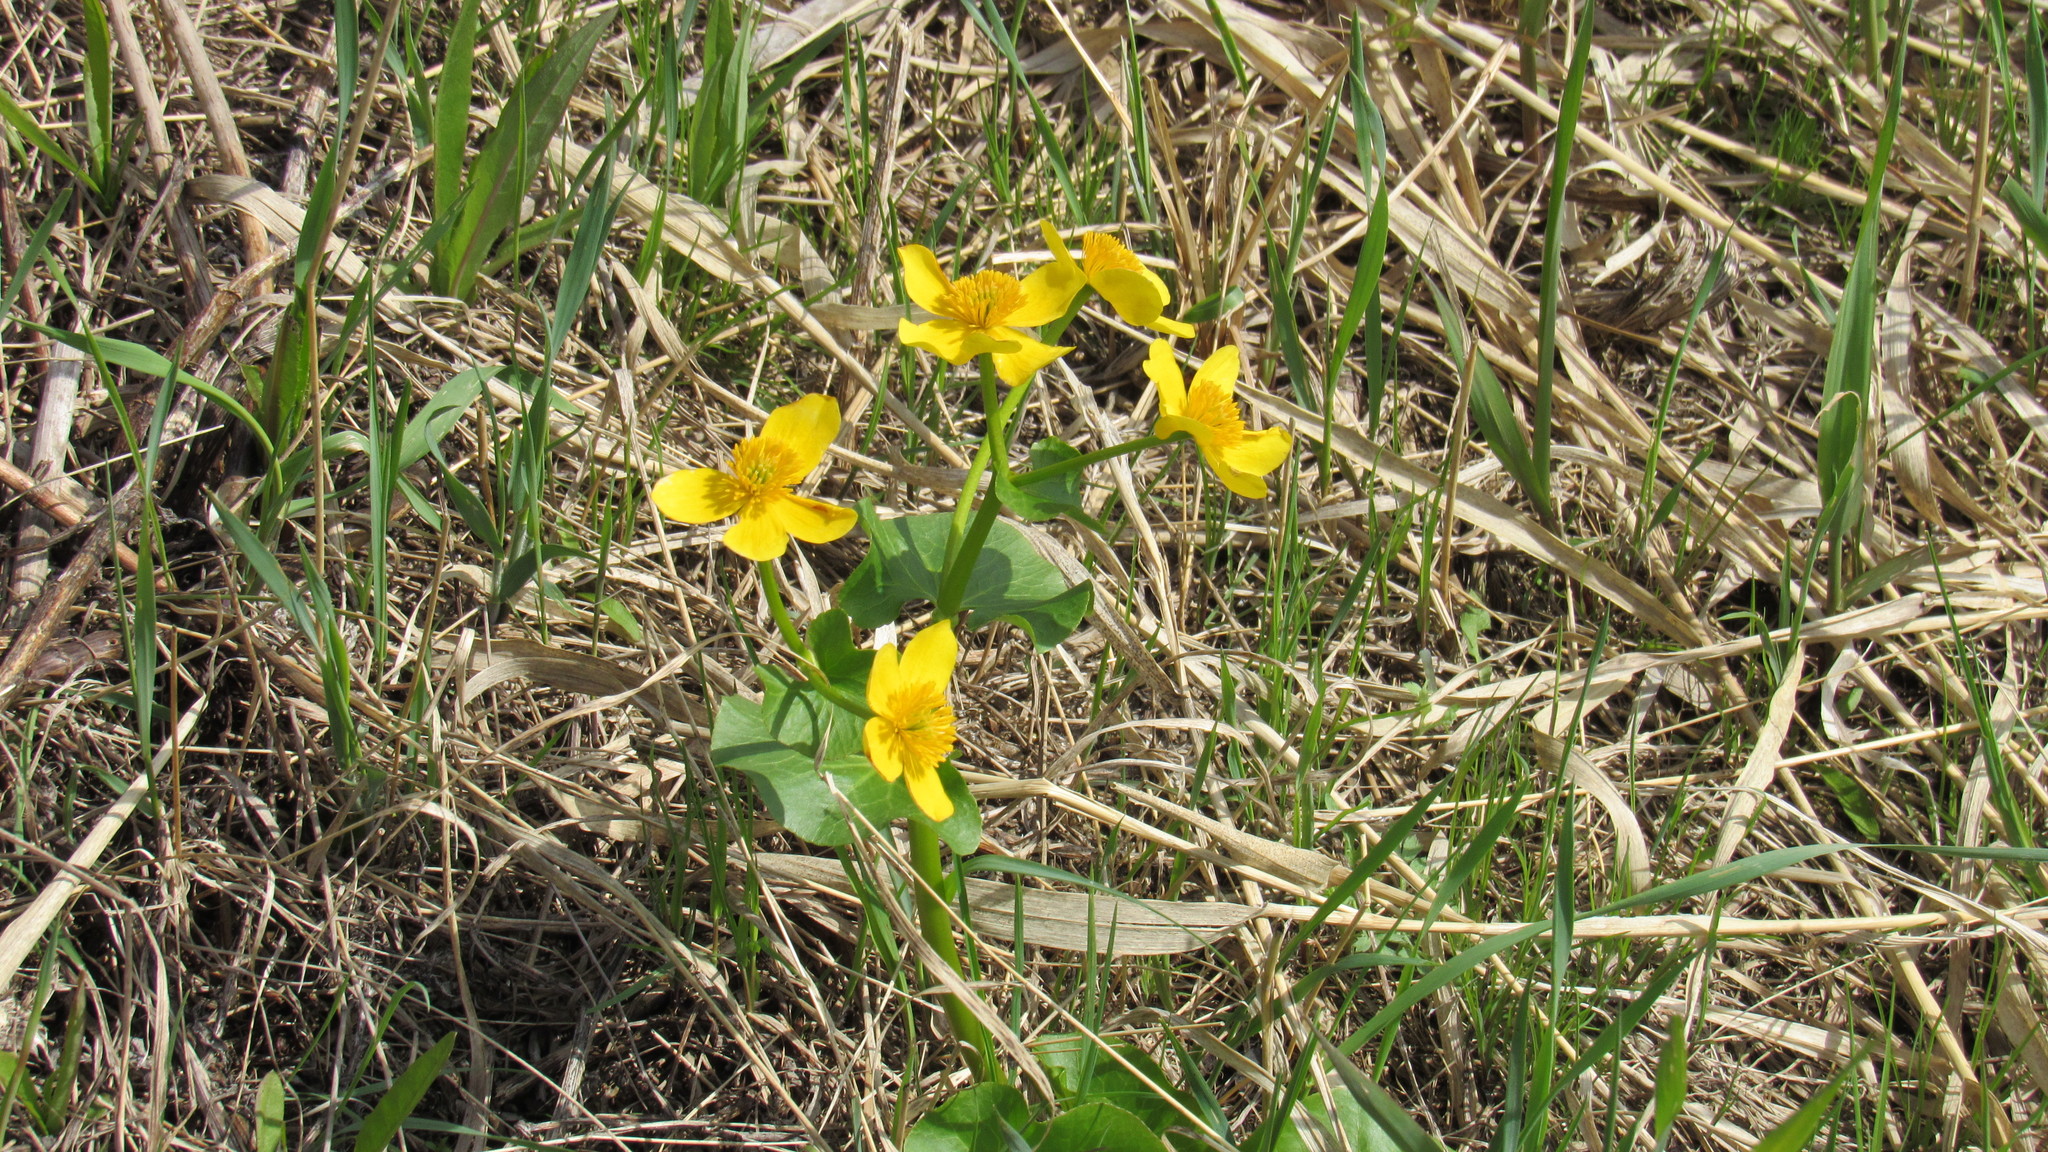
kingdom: Plantae
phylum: Tracheophyta
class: Magnoliopsida
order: Ranunculales
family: Ranunculaceae
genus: Caltha
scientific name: Caltha palustris
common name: Marsh marigold
